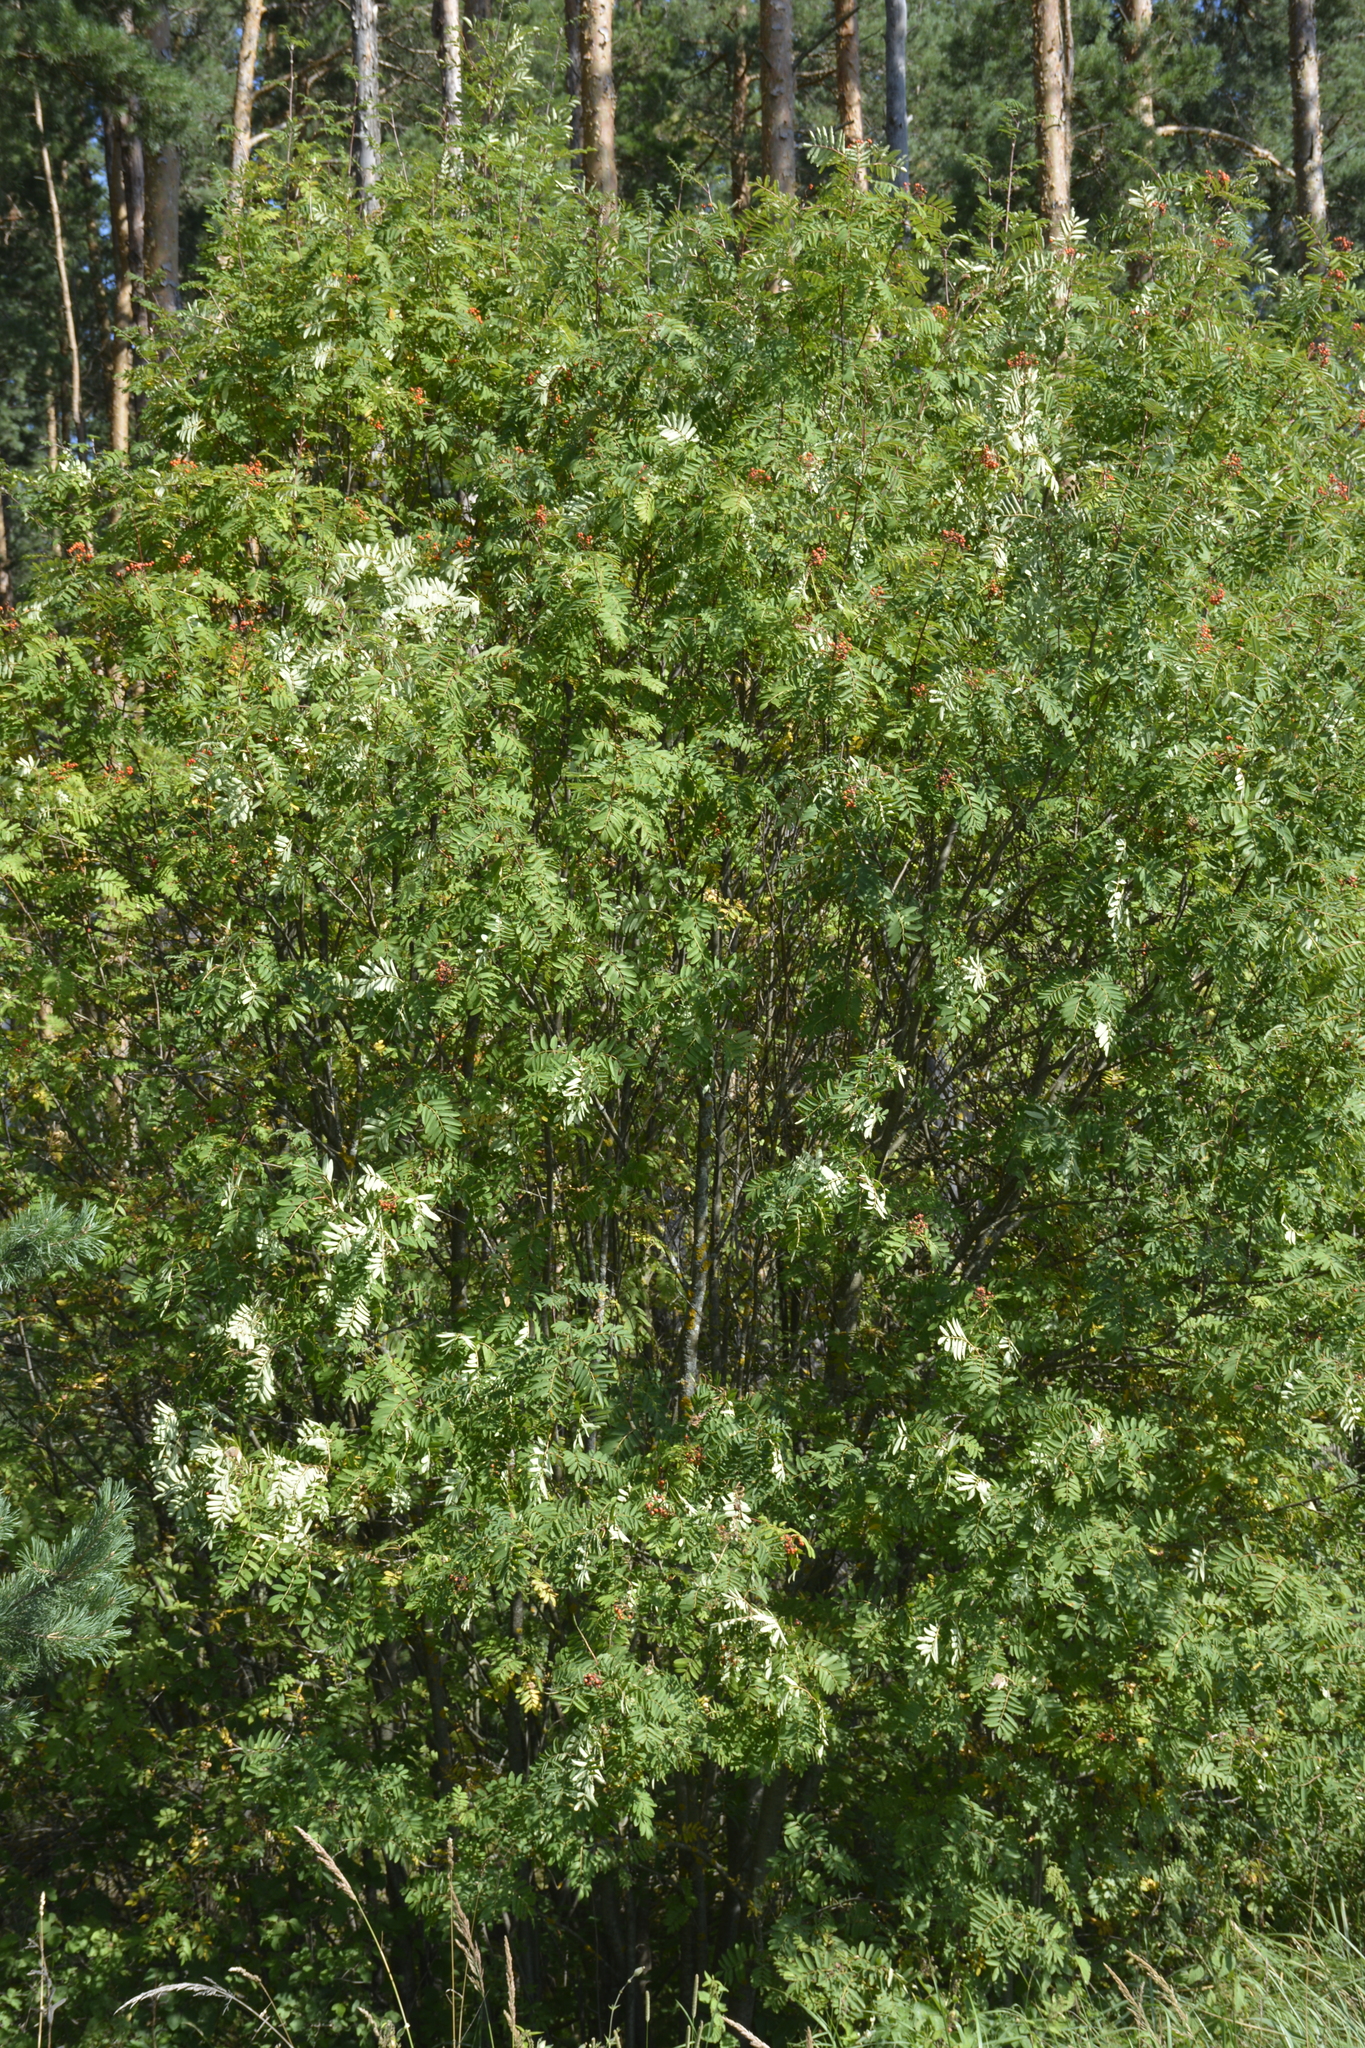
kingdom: Plantae
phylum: Tracheophyta
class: Magnoliopsida
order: Rosales
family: Rosaceae
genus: Sorbus
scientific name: Sorbus aucuparia
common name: Rowan
